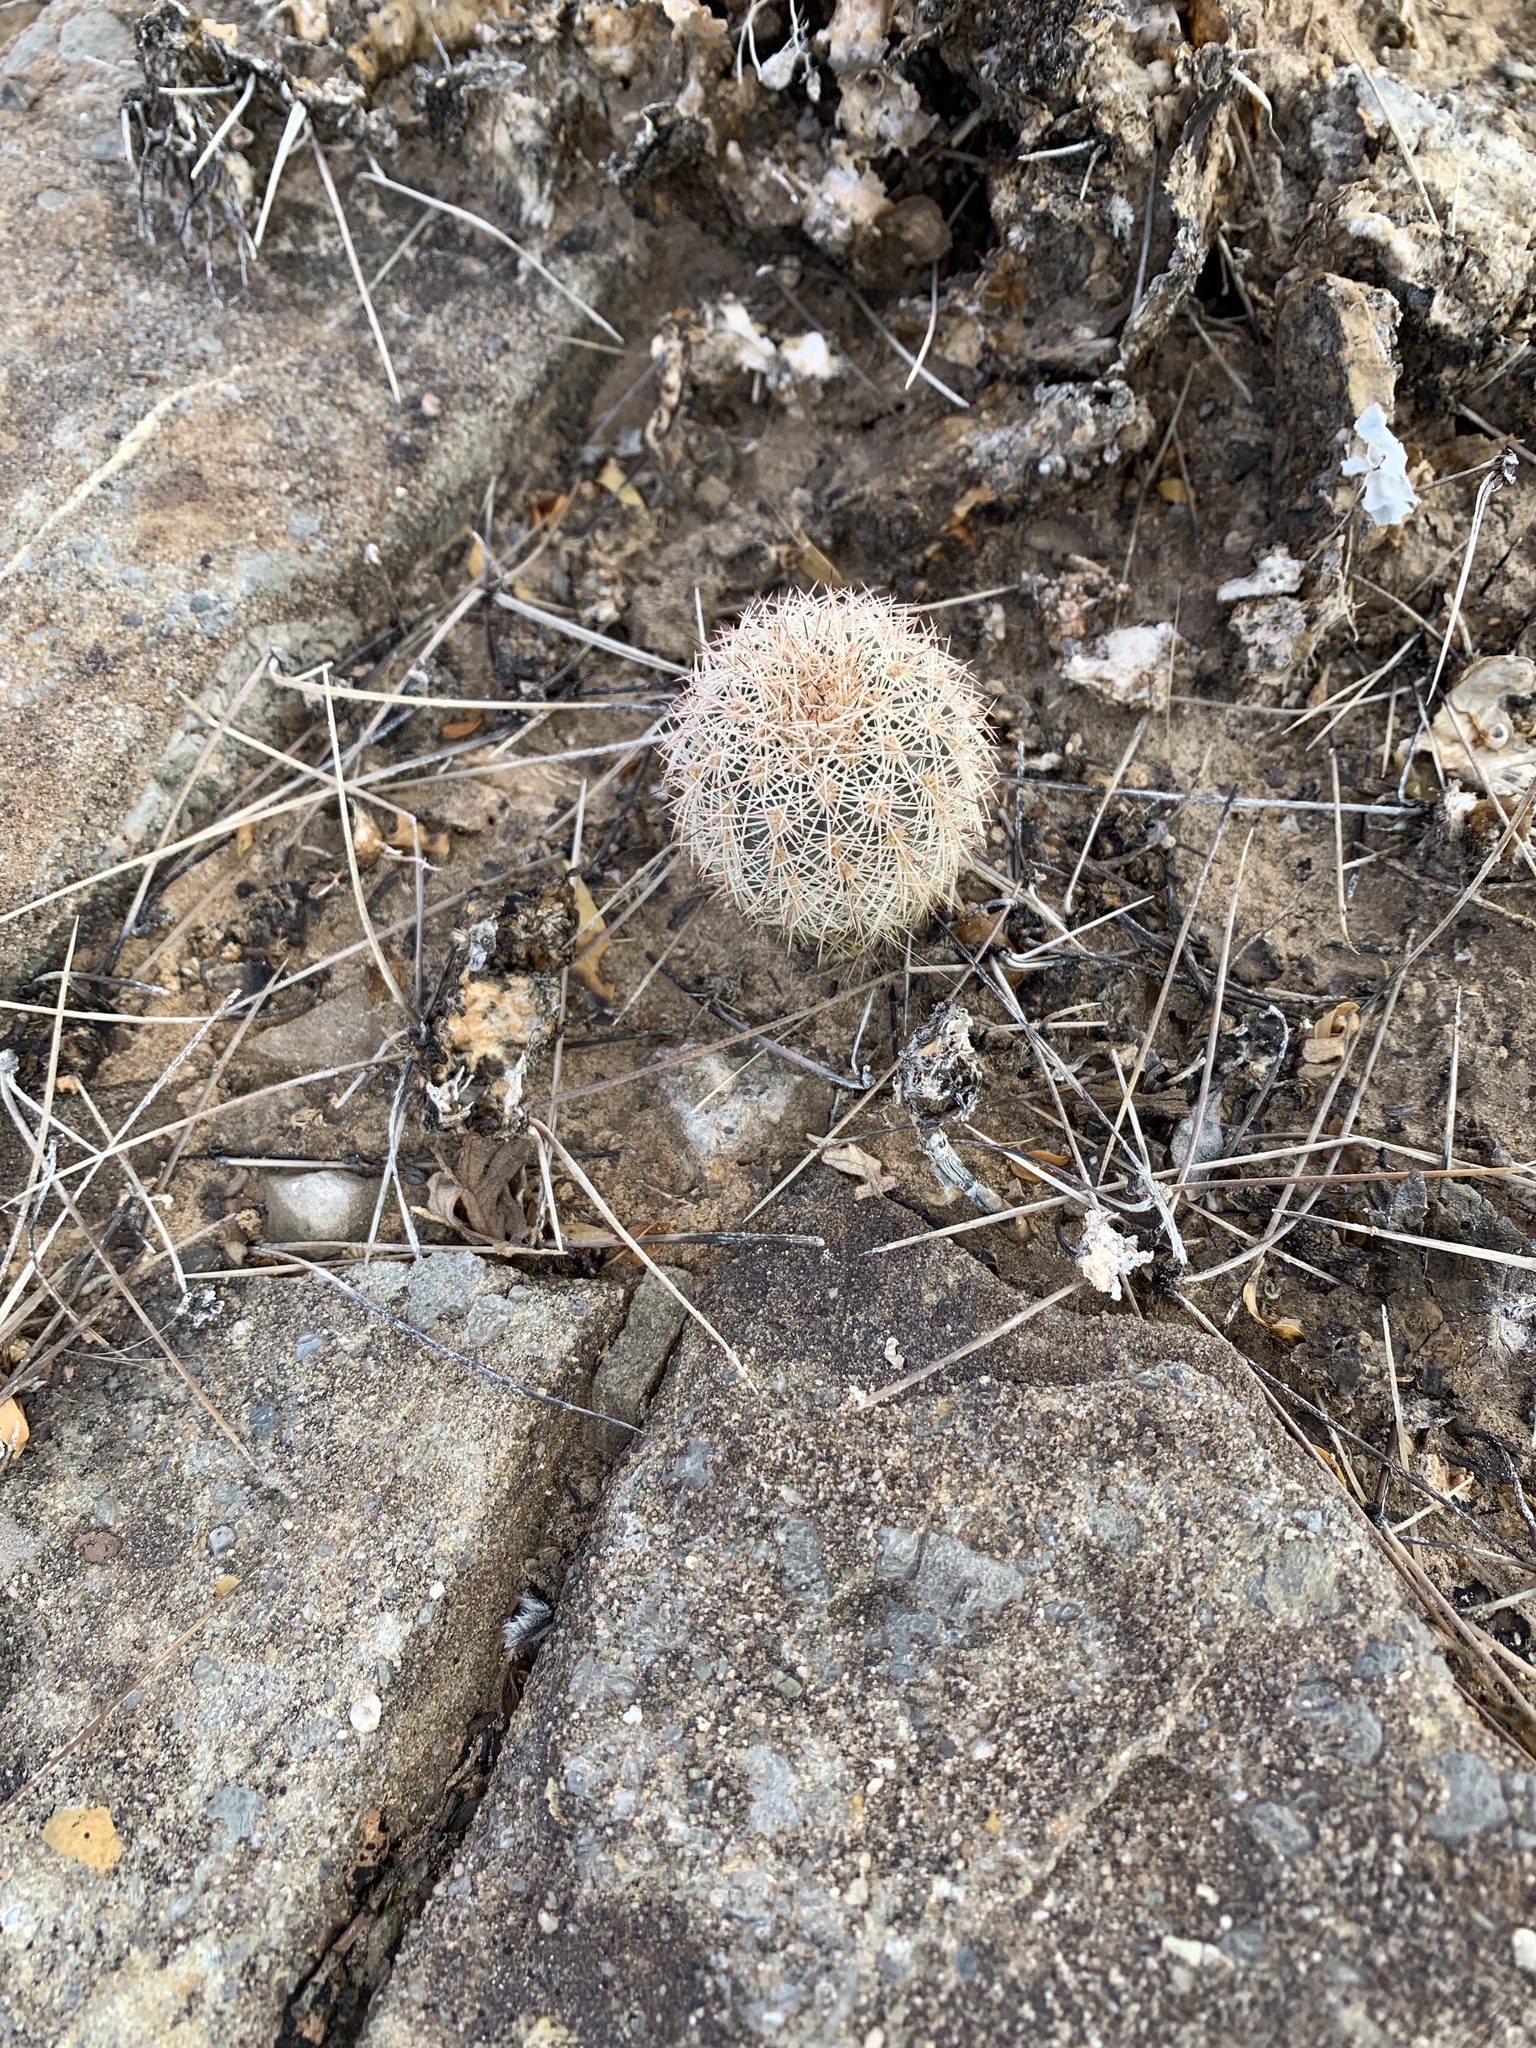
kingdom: Plantae
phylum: Tracheophyta
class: Magnoliopsida
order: Caryophyllales
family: Cactaceae
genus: Echinocereus
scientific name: Echinocereus dasyacanthus
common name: Spiny hedgehog cactus
